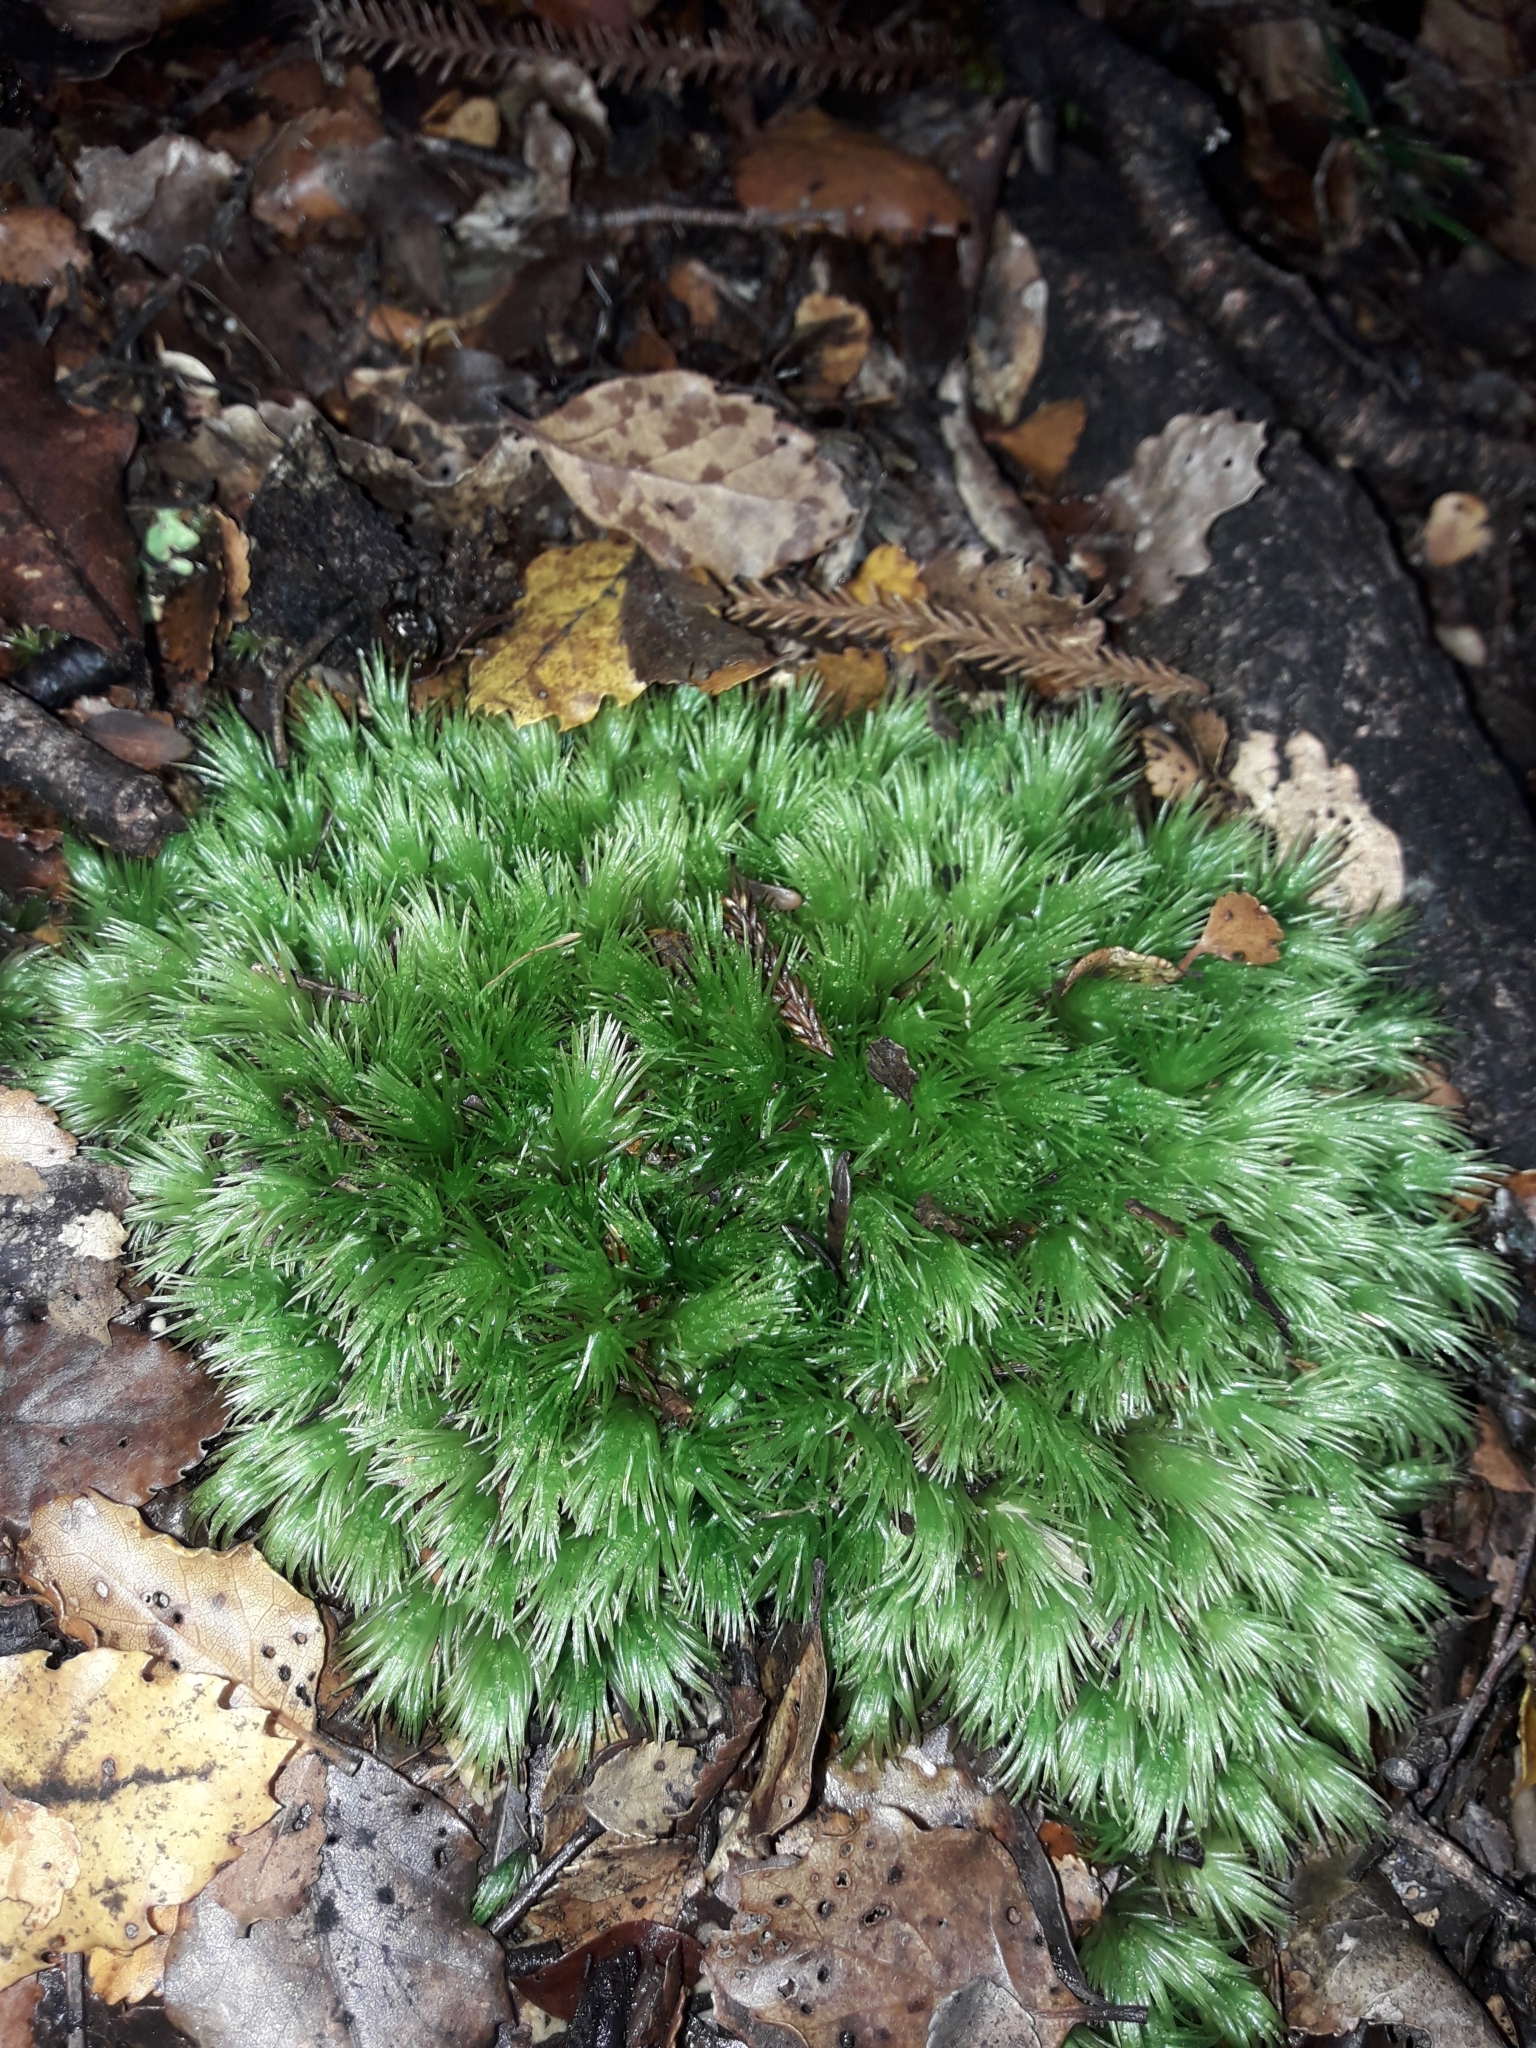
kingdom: Plantae
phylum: Bryophyta
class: Bryopsida
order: Dicranales
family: Leucobryaceae
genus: Leucobryum
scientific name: Leucobryum javense
